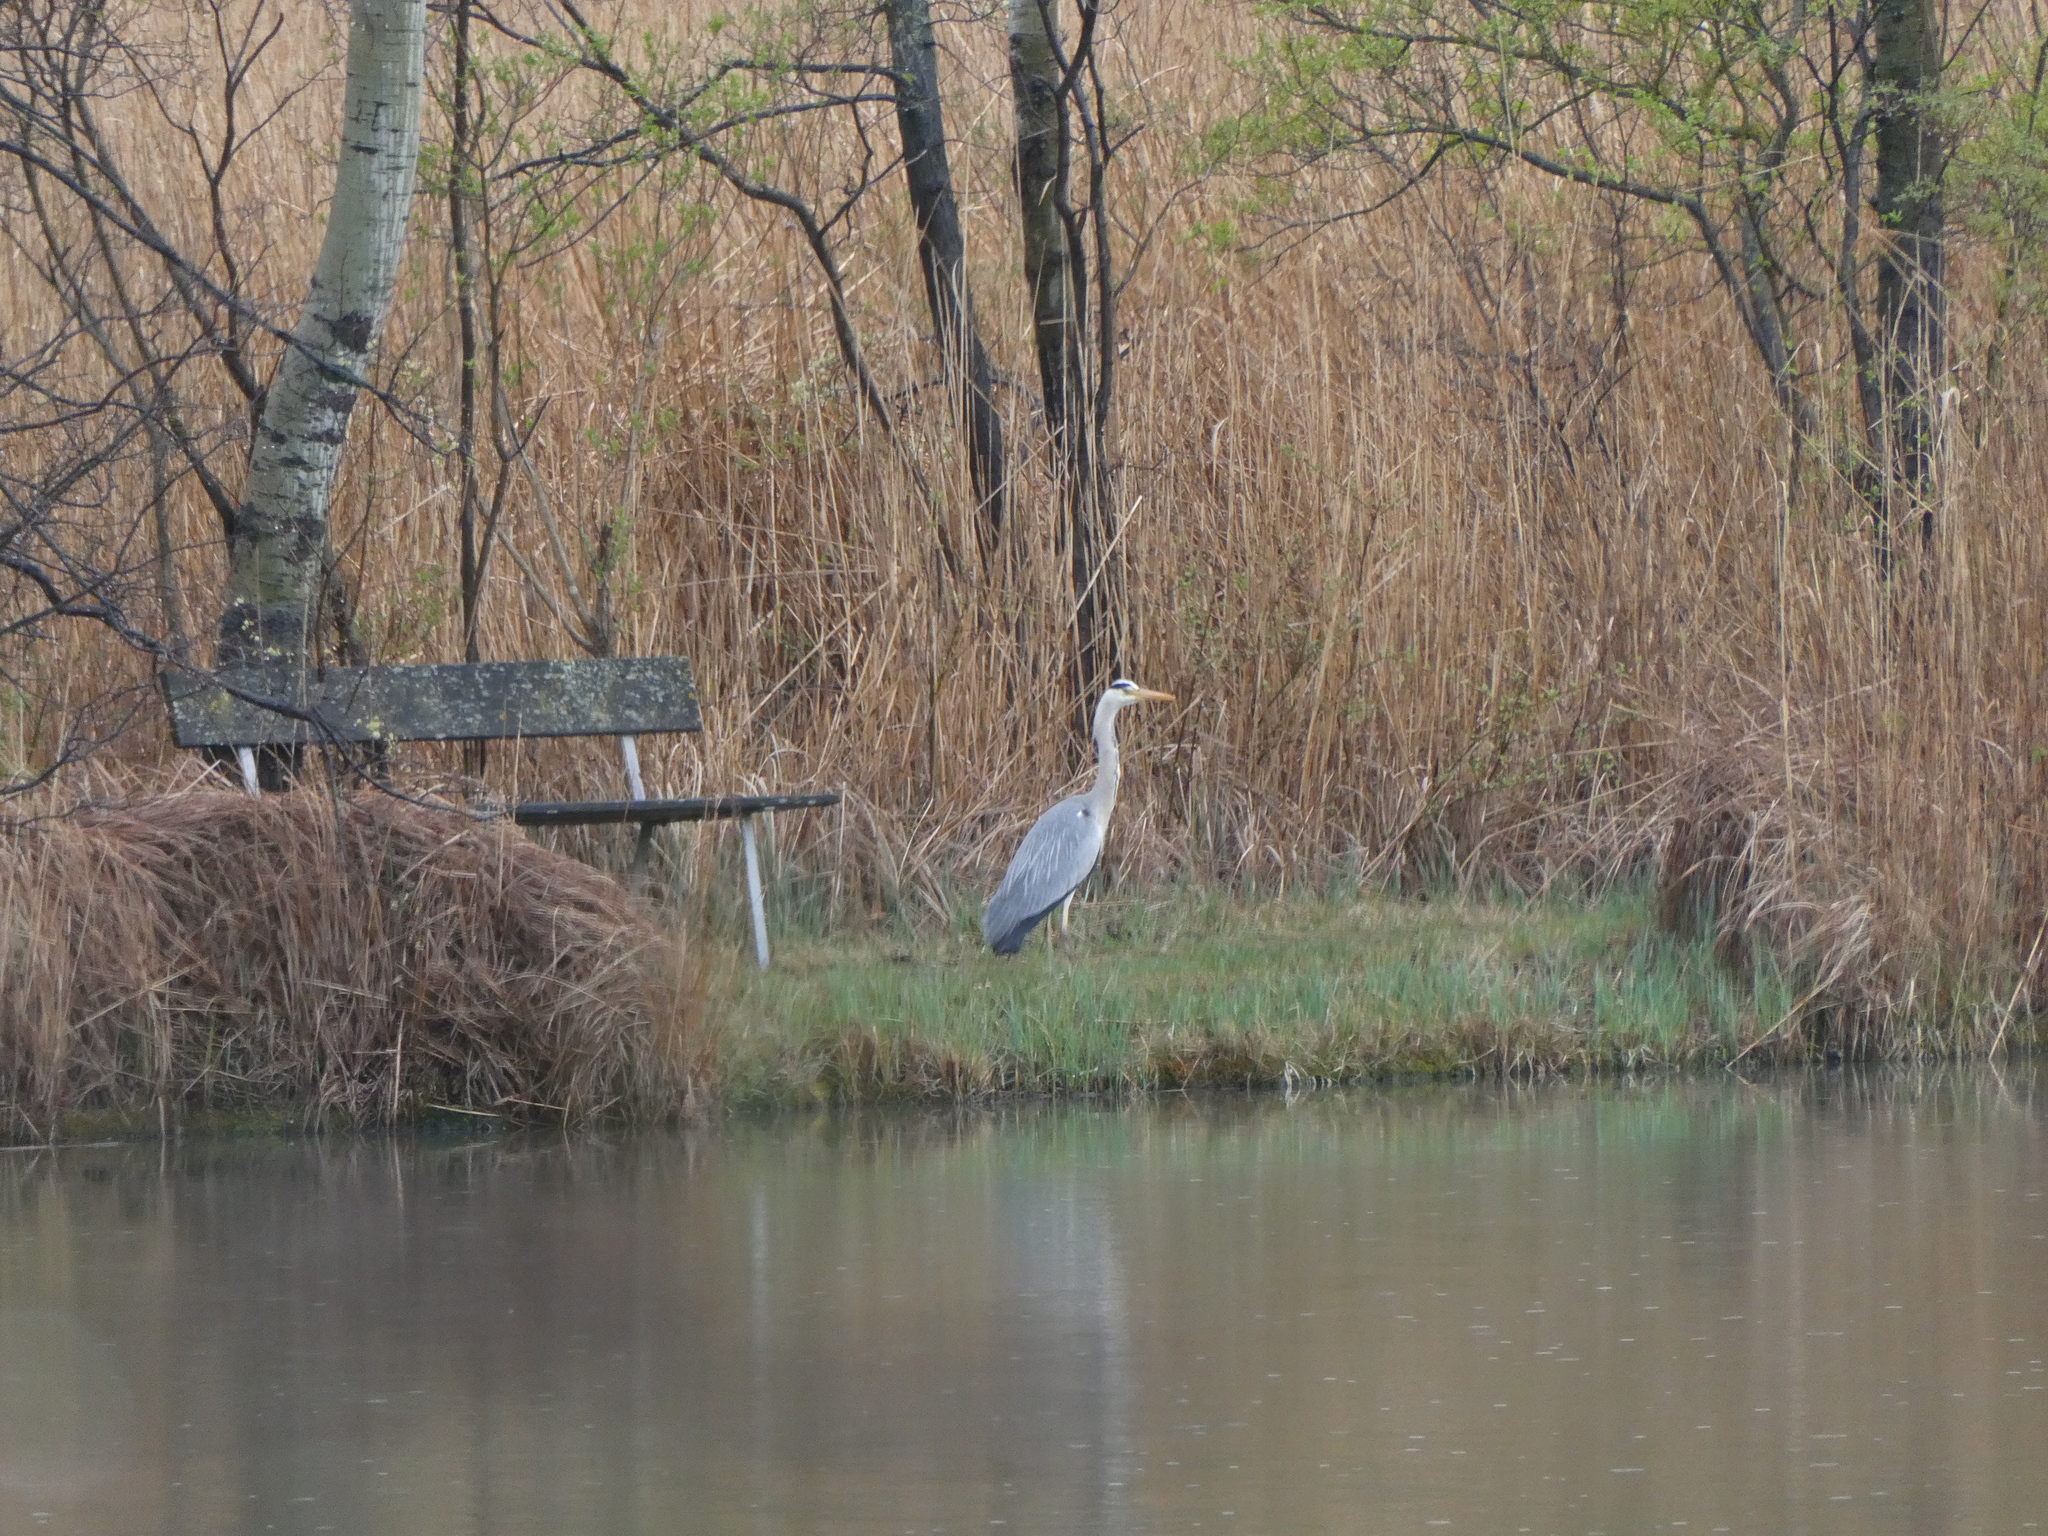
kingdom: Animalia
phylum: Chordata
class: Aves
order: Pelecaniformes
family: Ardeidae
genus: Ardea
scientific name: Ardea cinerea
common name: Grey heron
